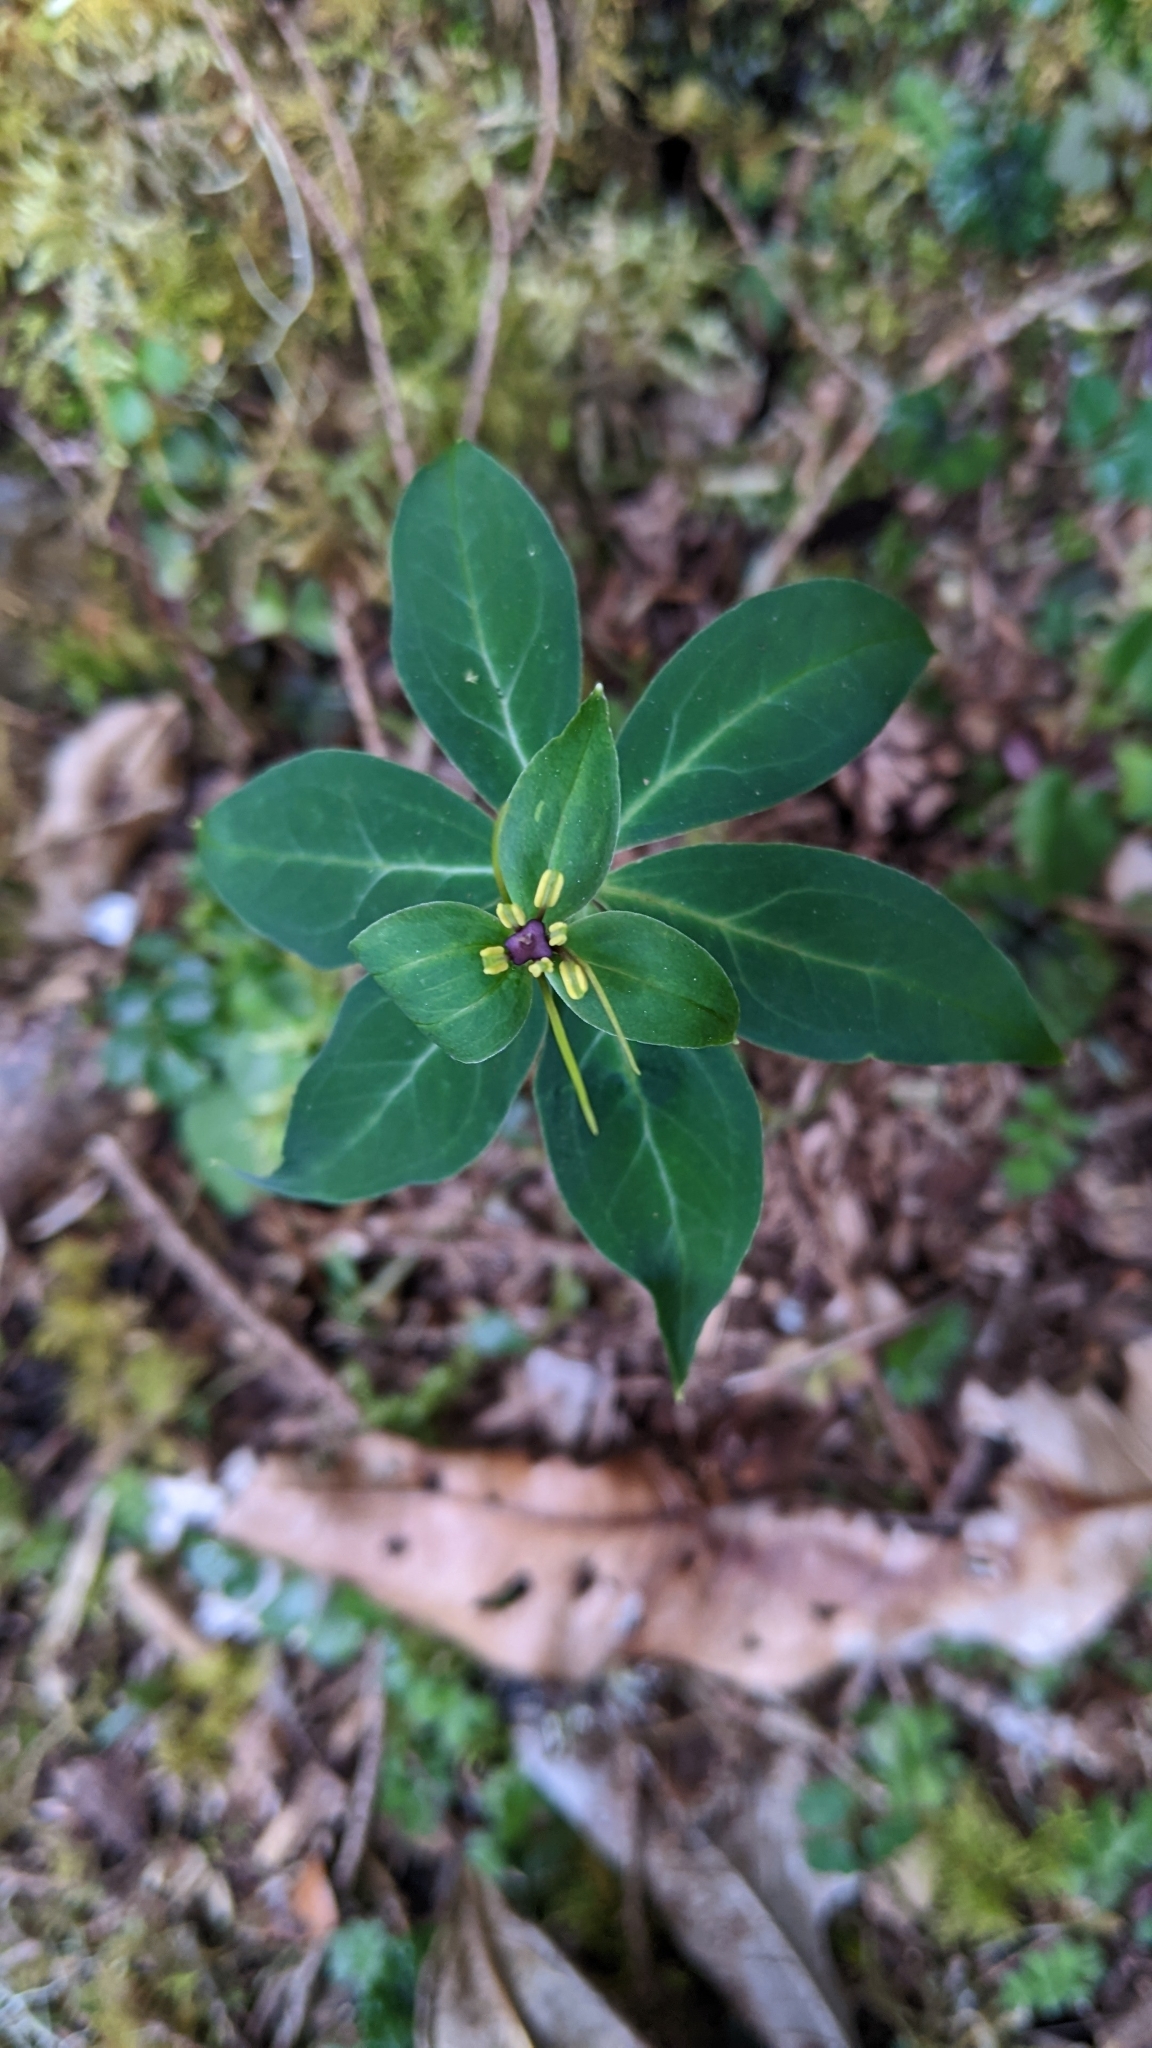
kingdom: Plantae
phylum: Tracheophyta
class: Liliopsida
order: Liliales
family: Melanthiaceae
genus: Paris
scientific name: Paris lanceolata
